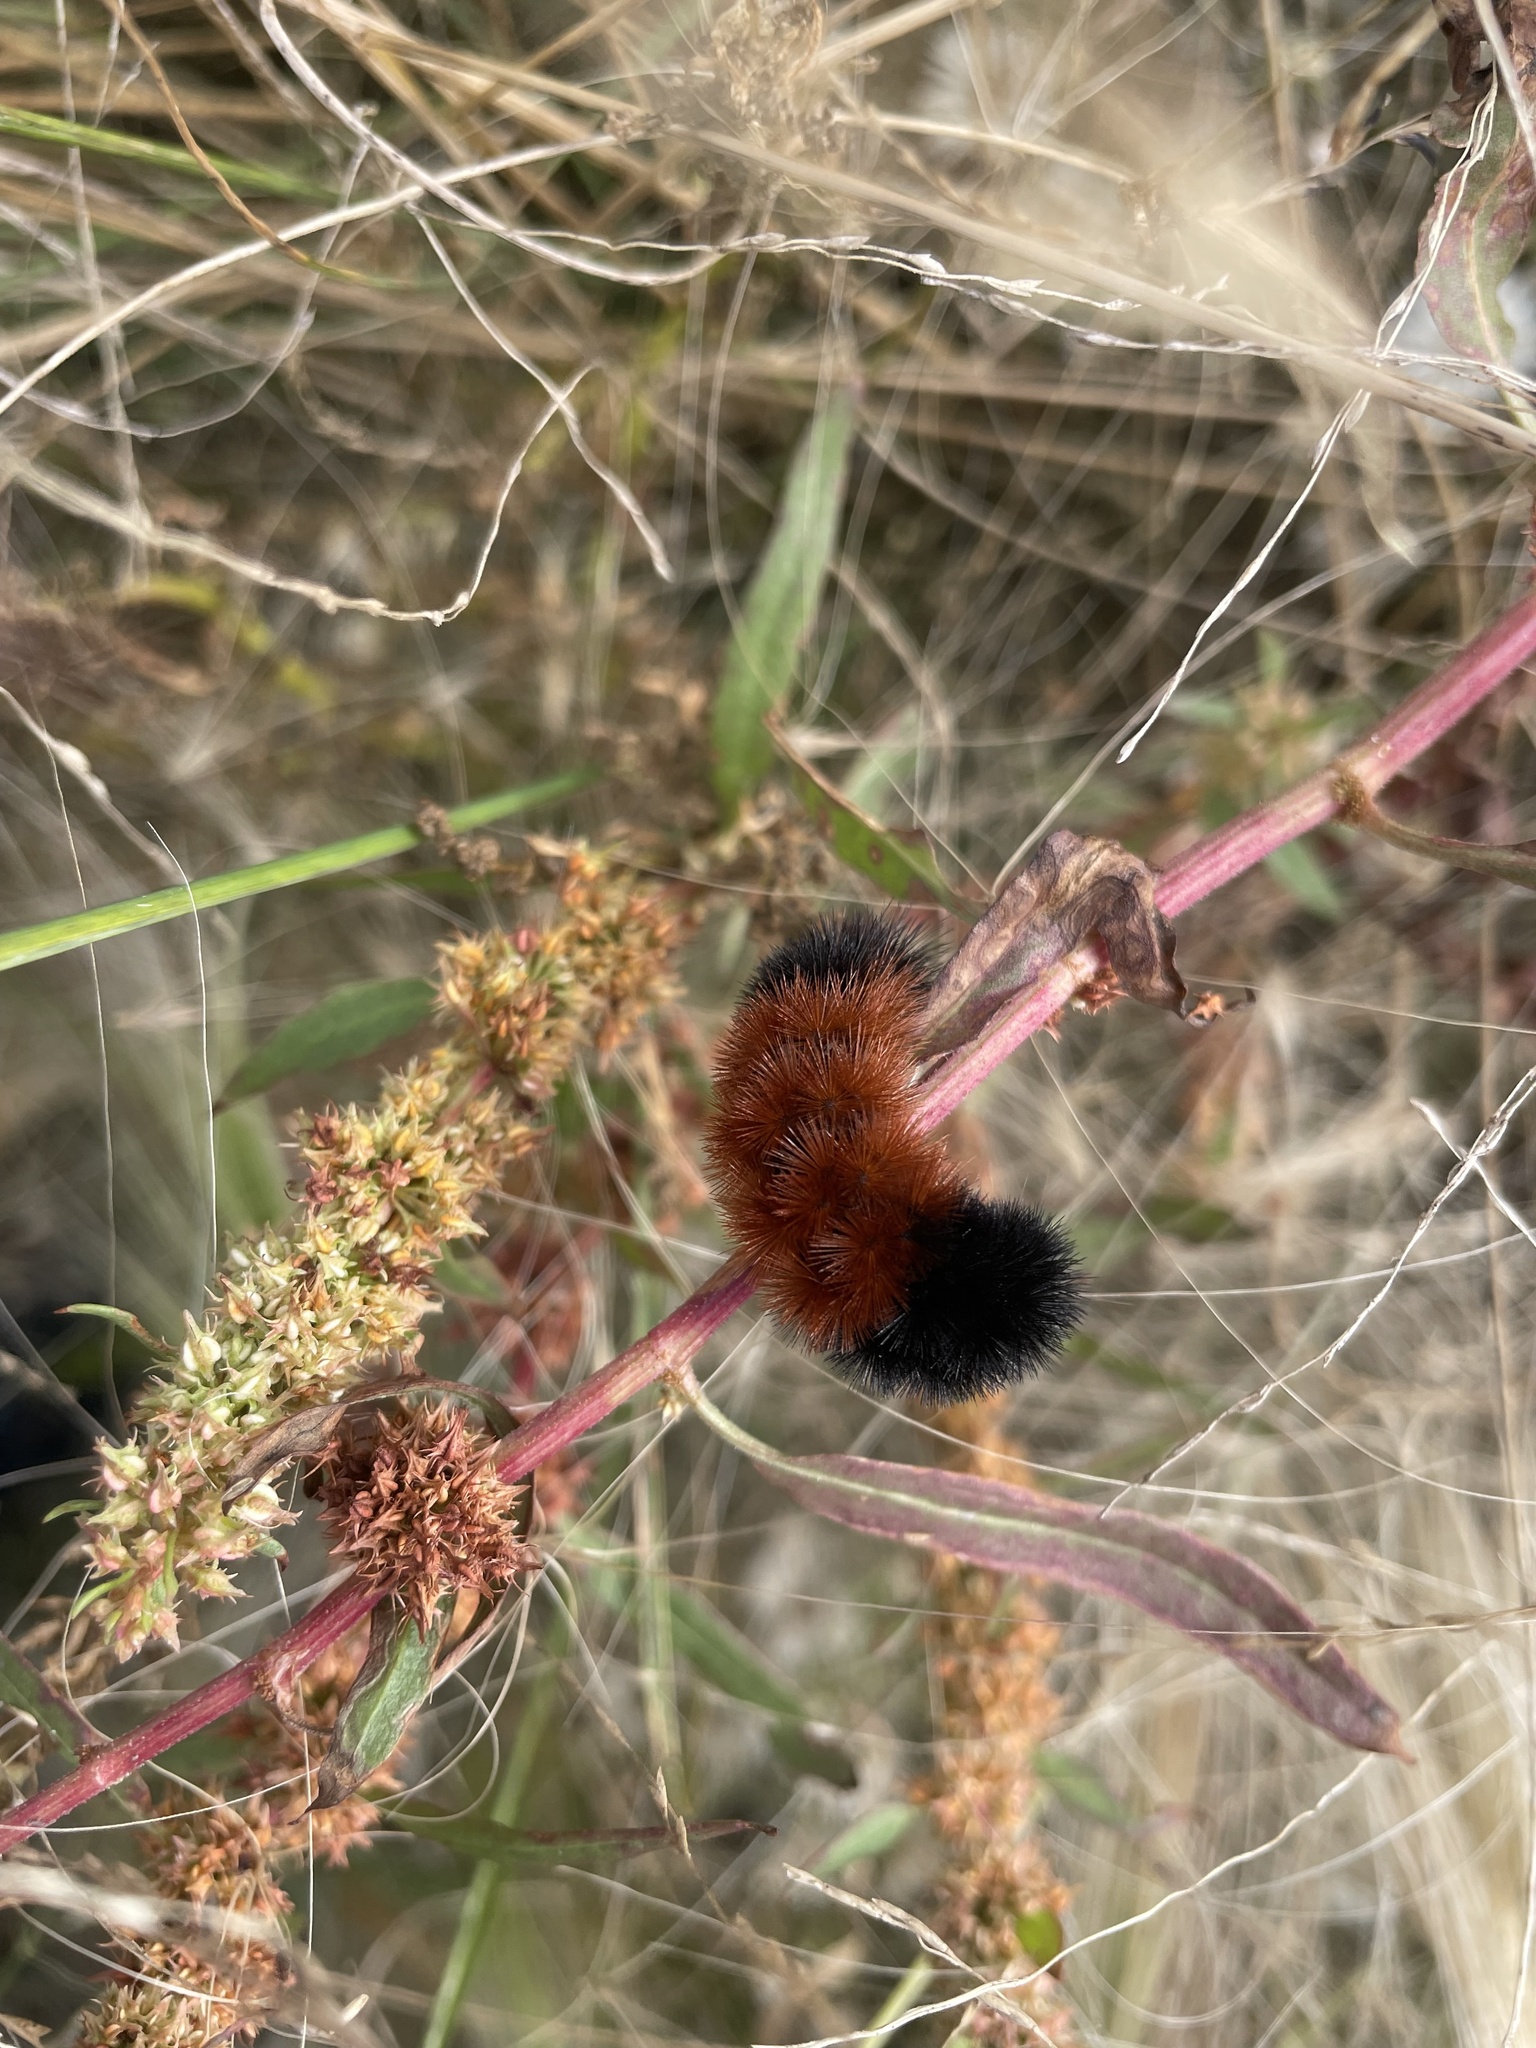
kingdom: Animalia
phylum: Arthropoda
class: Insecta
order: Lepidoptera
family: Erebidae
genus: Pyrrharctia
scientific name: Pyrrharctia isabella
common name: Isabella tiger moth
